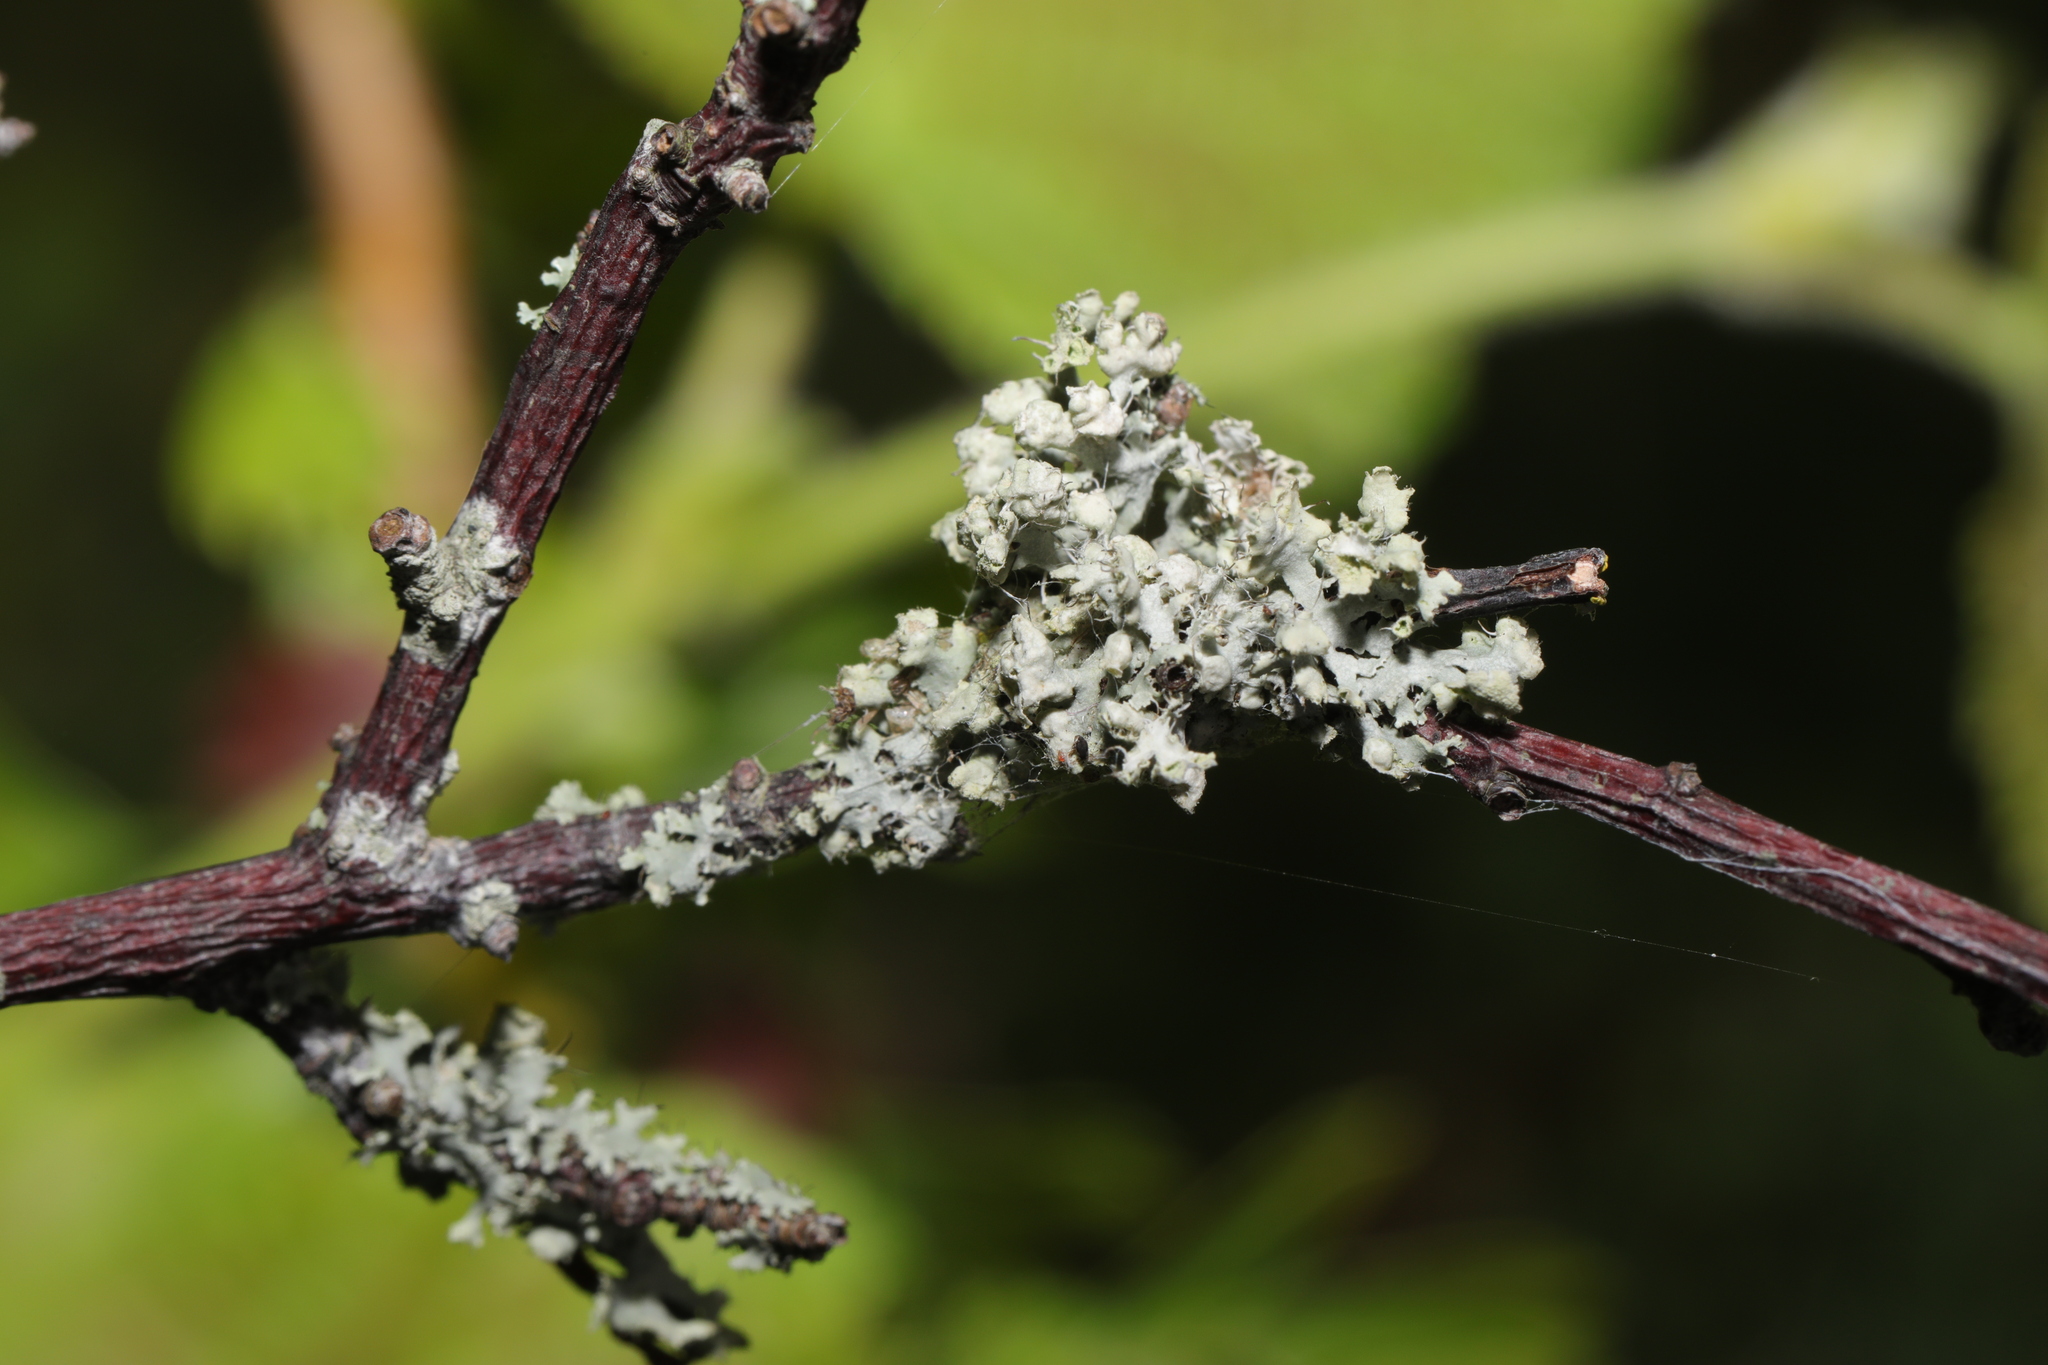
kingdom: Fungi
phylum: Ascomycota
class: Lecanoromycetes
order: Caliciales
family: Physciaceae
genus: Physcia
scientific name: Physcia adscendens
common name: Hooded rosette lichen
